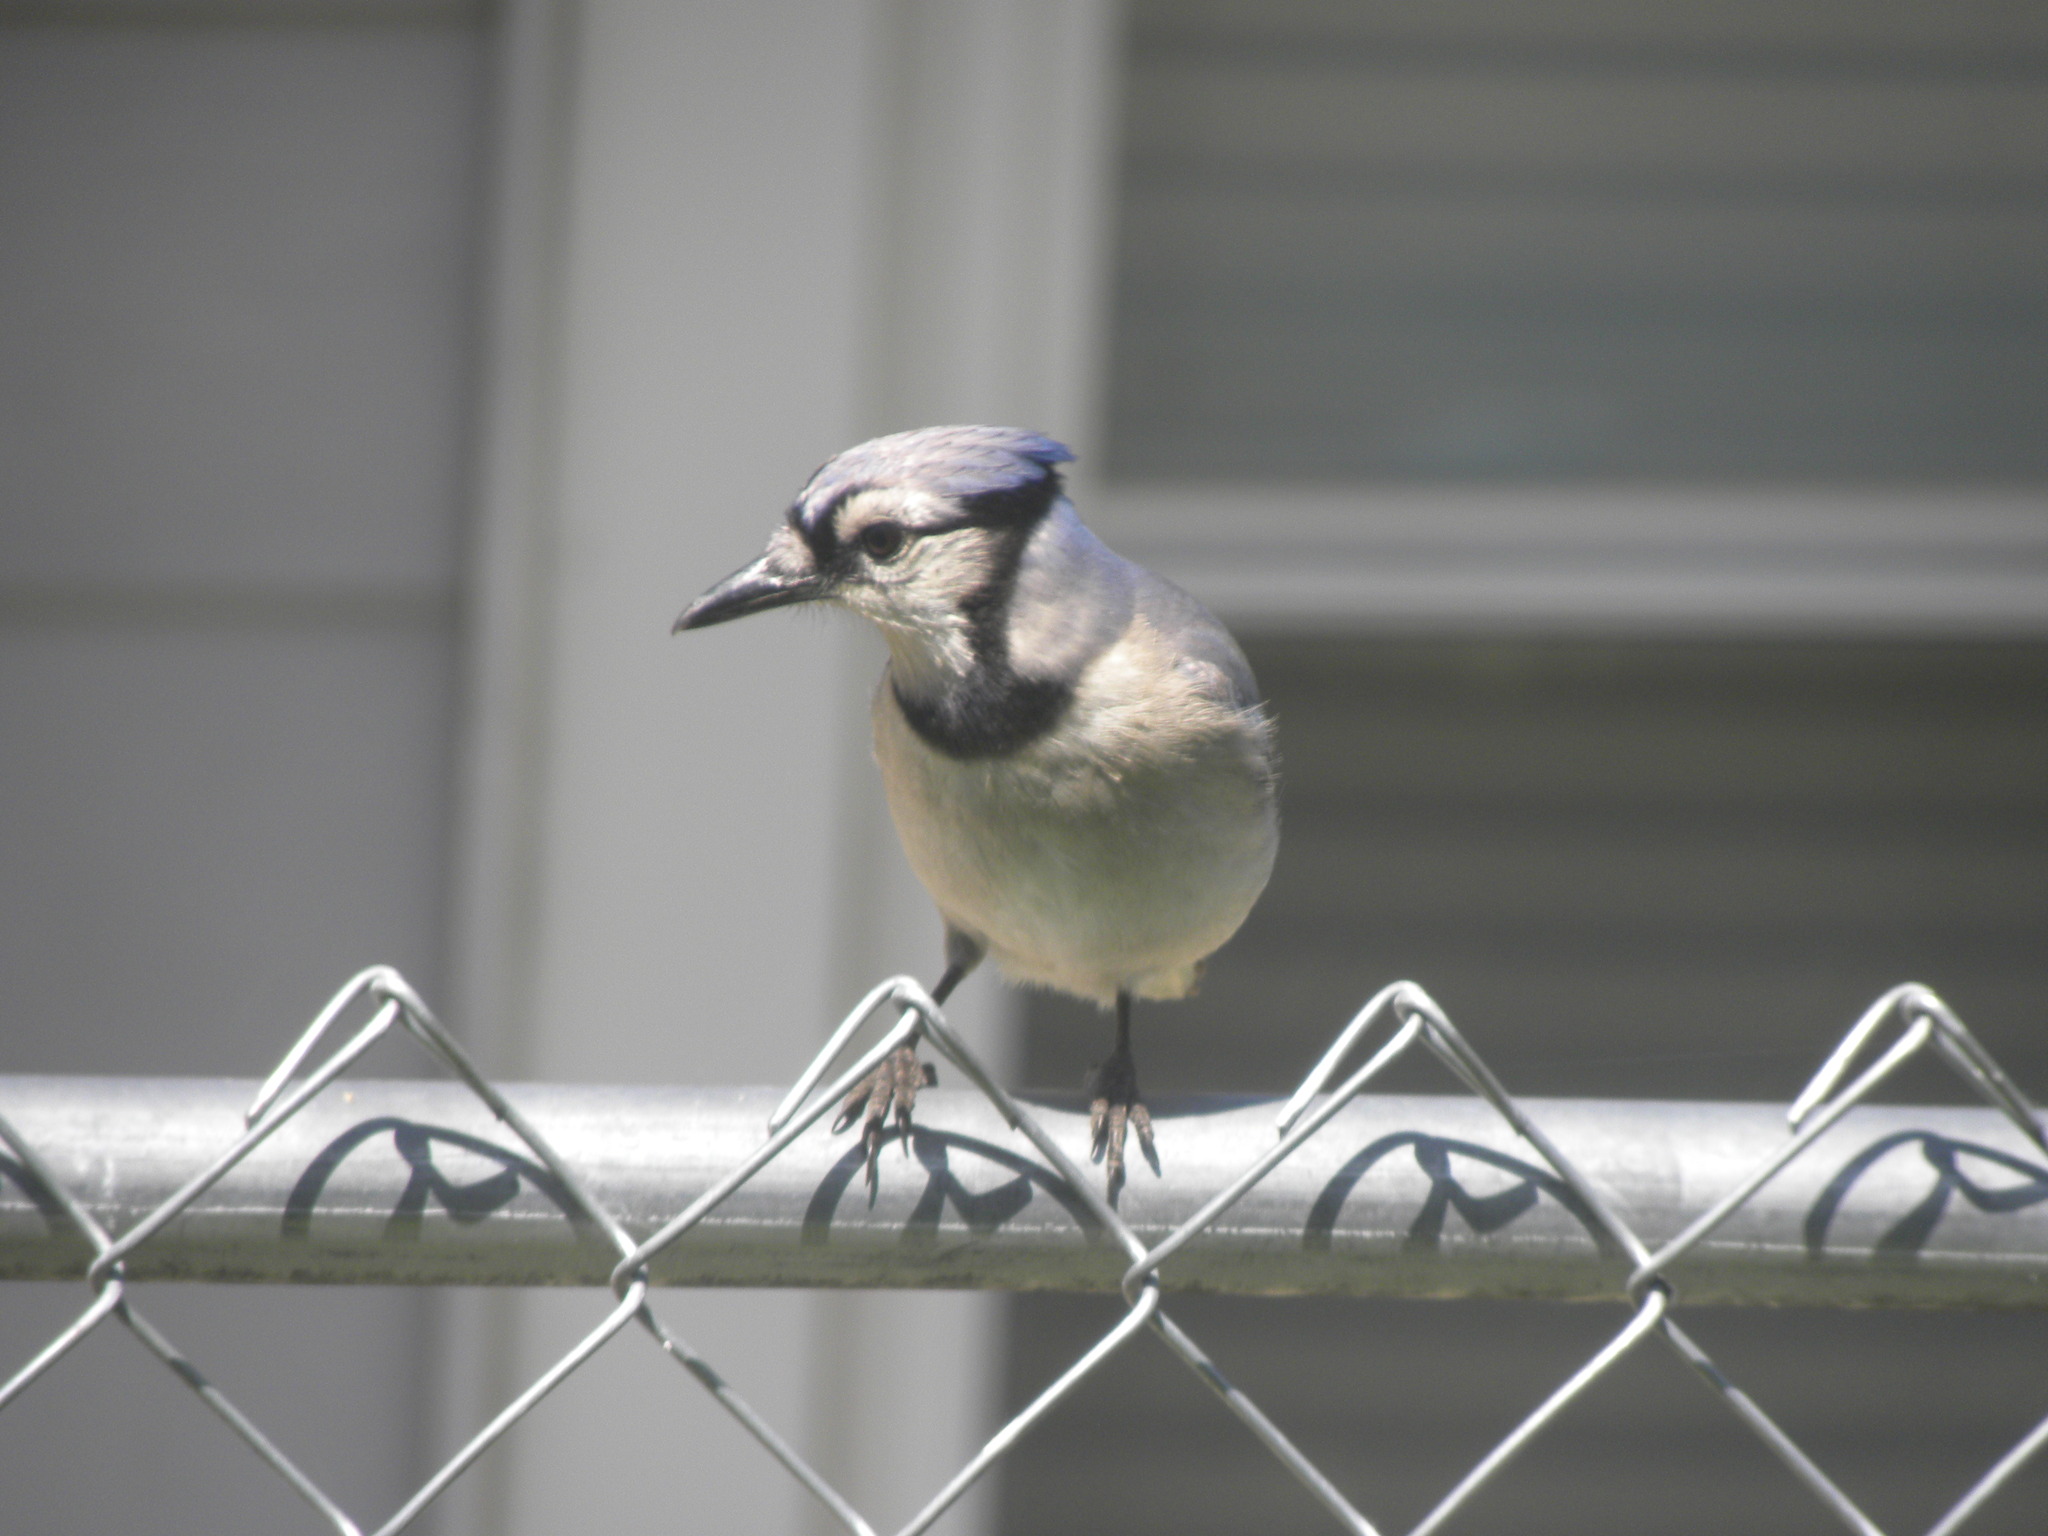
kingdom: Animalia
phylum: Chordata
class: Aves
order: Passeriformes
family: Corvidae
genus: Cyanocitta
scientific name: Cyanocitta cristata
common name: Blue jay
